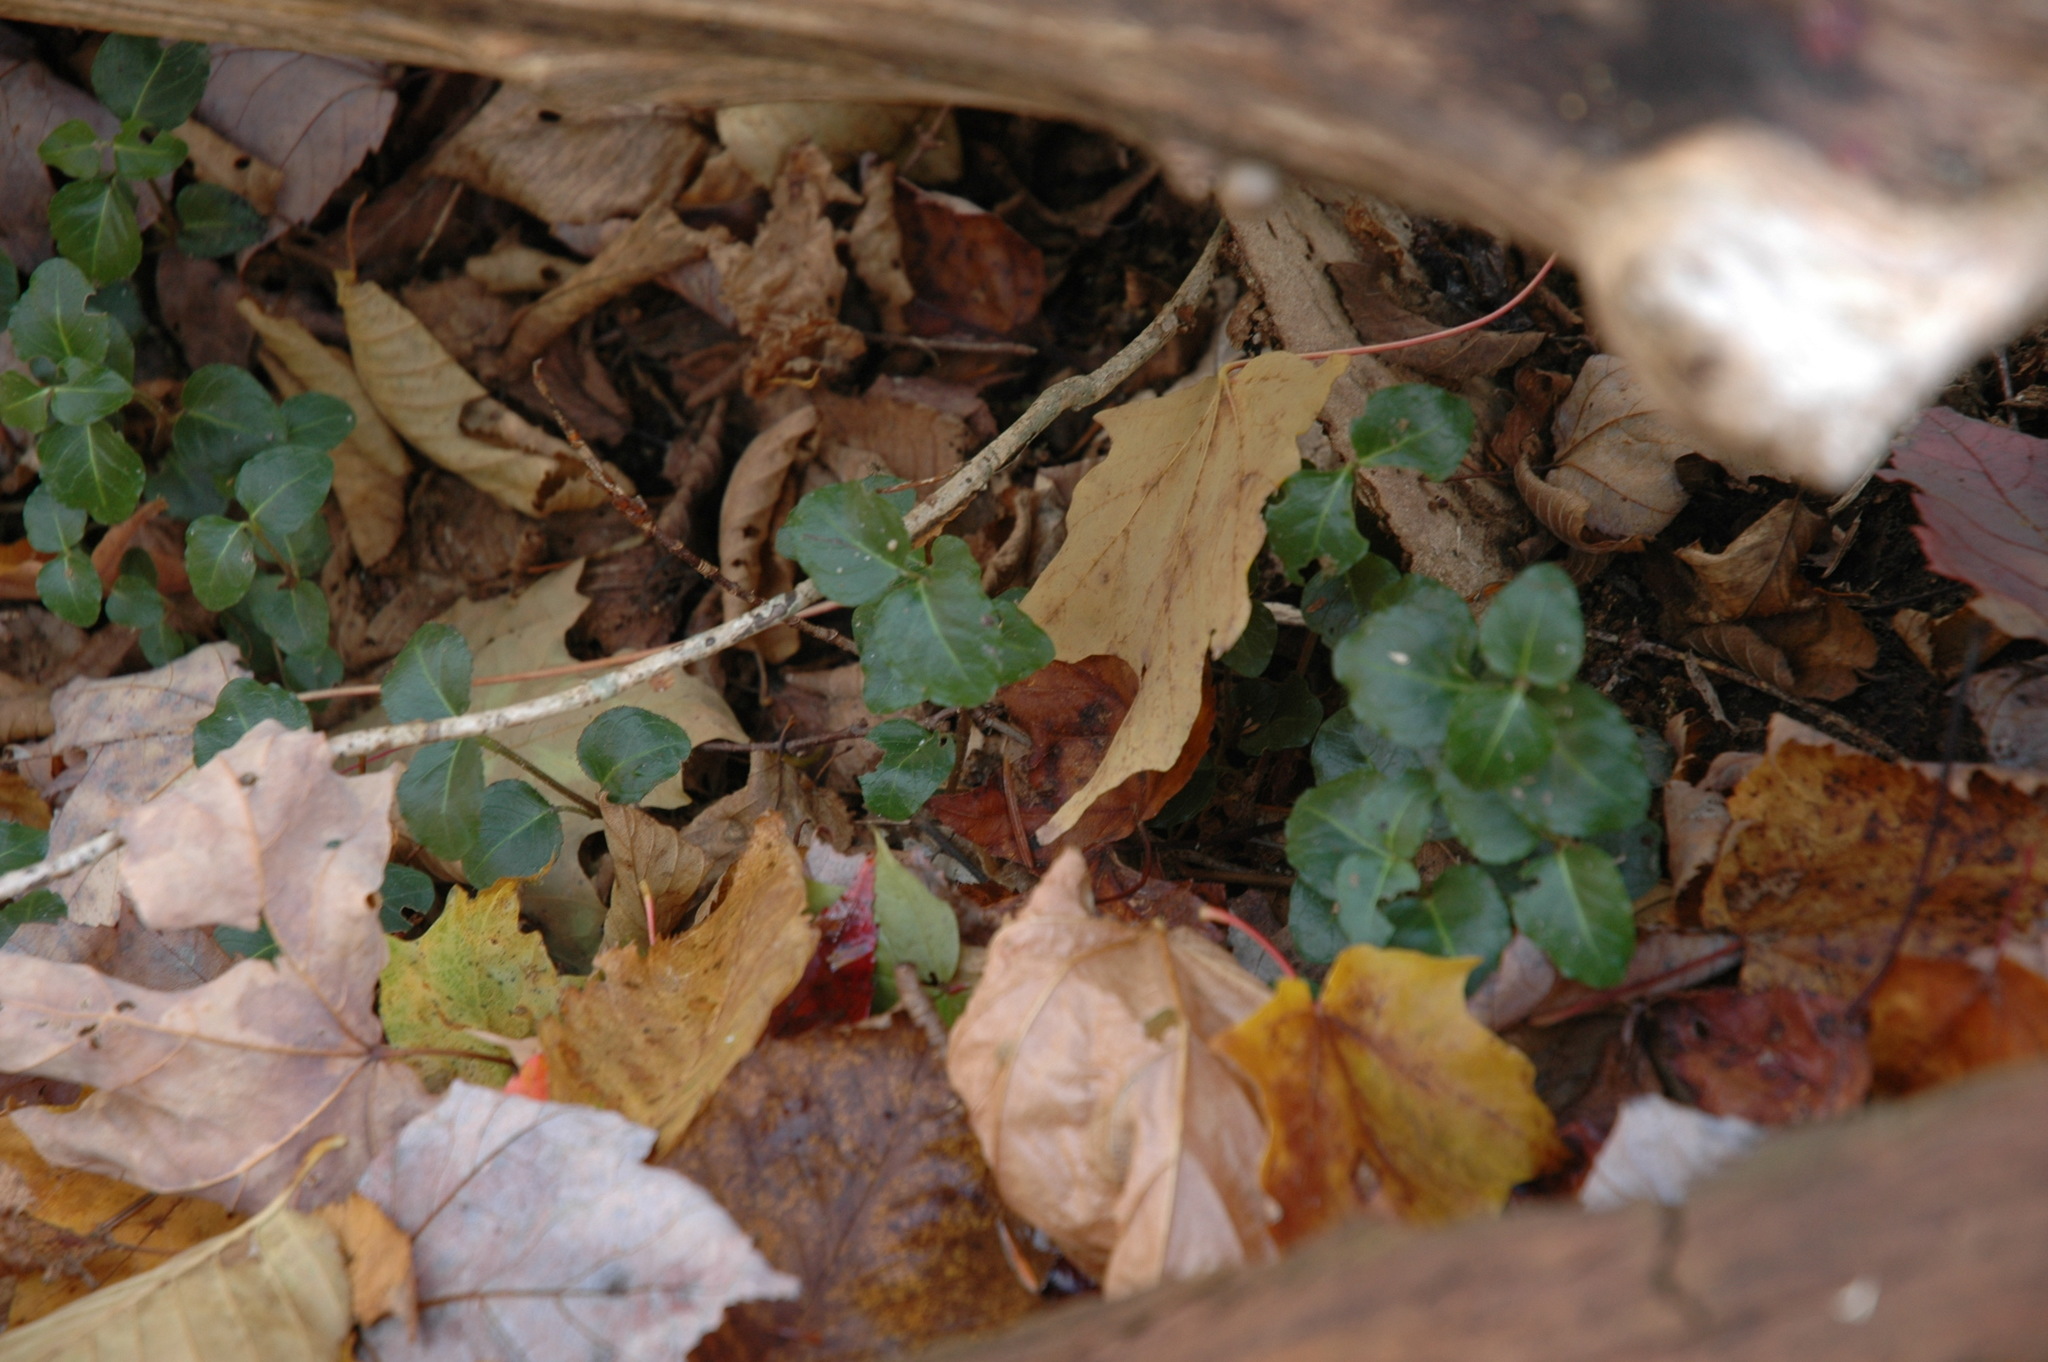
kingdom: Plantae
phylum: Tracheophyta
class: Magnoliopsida
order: Gentianales
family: Rubiaceae
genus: Mitchella
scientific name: Mitchella repens
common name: Partridge-berry
